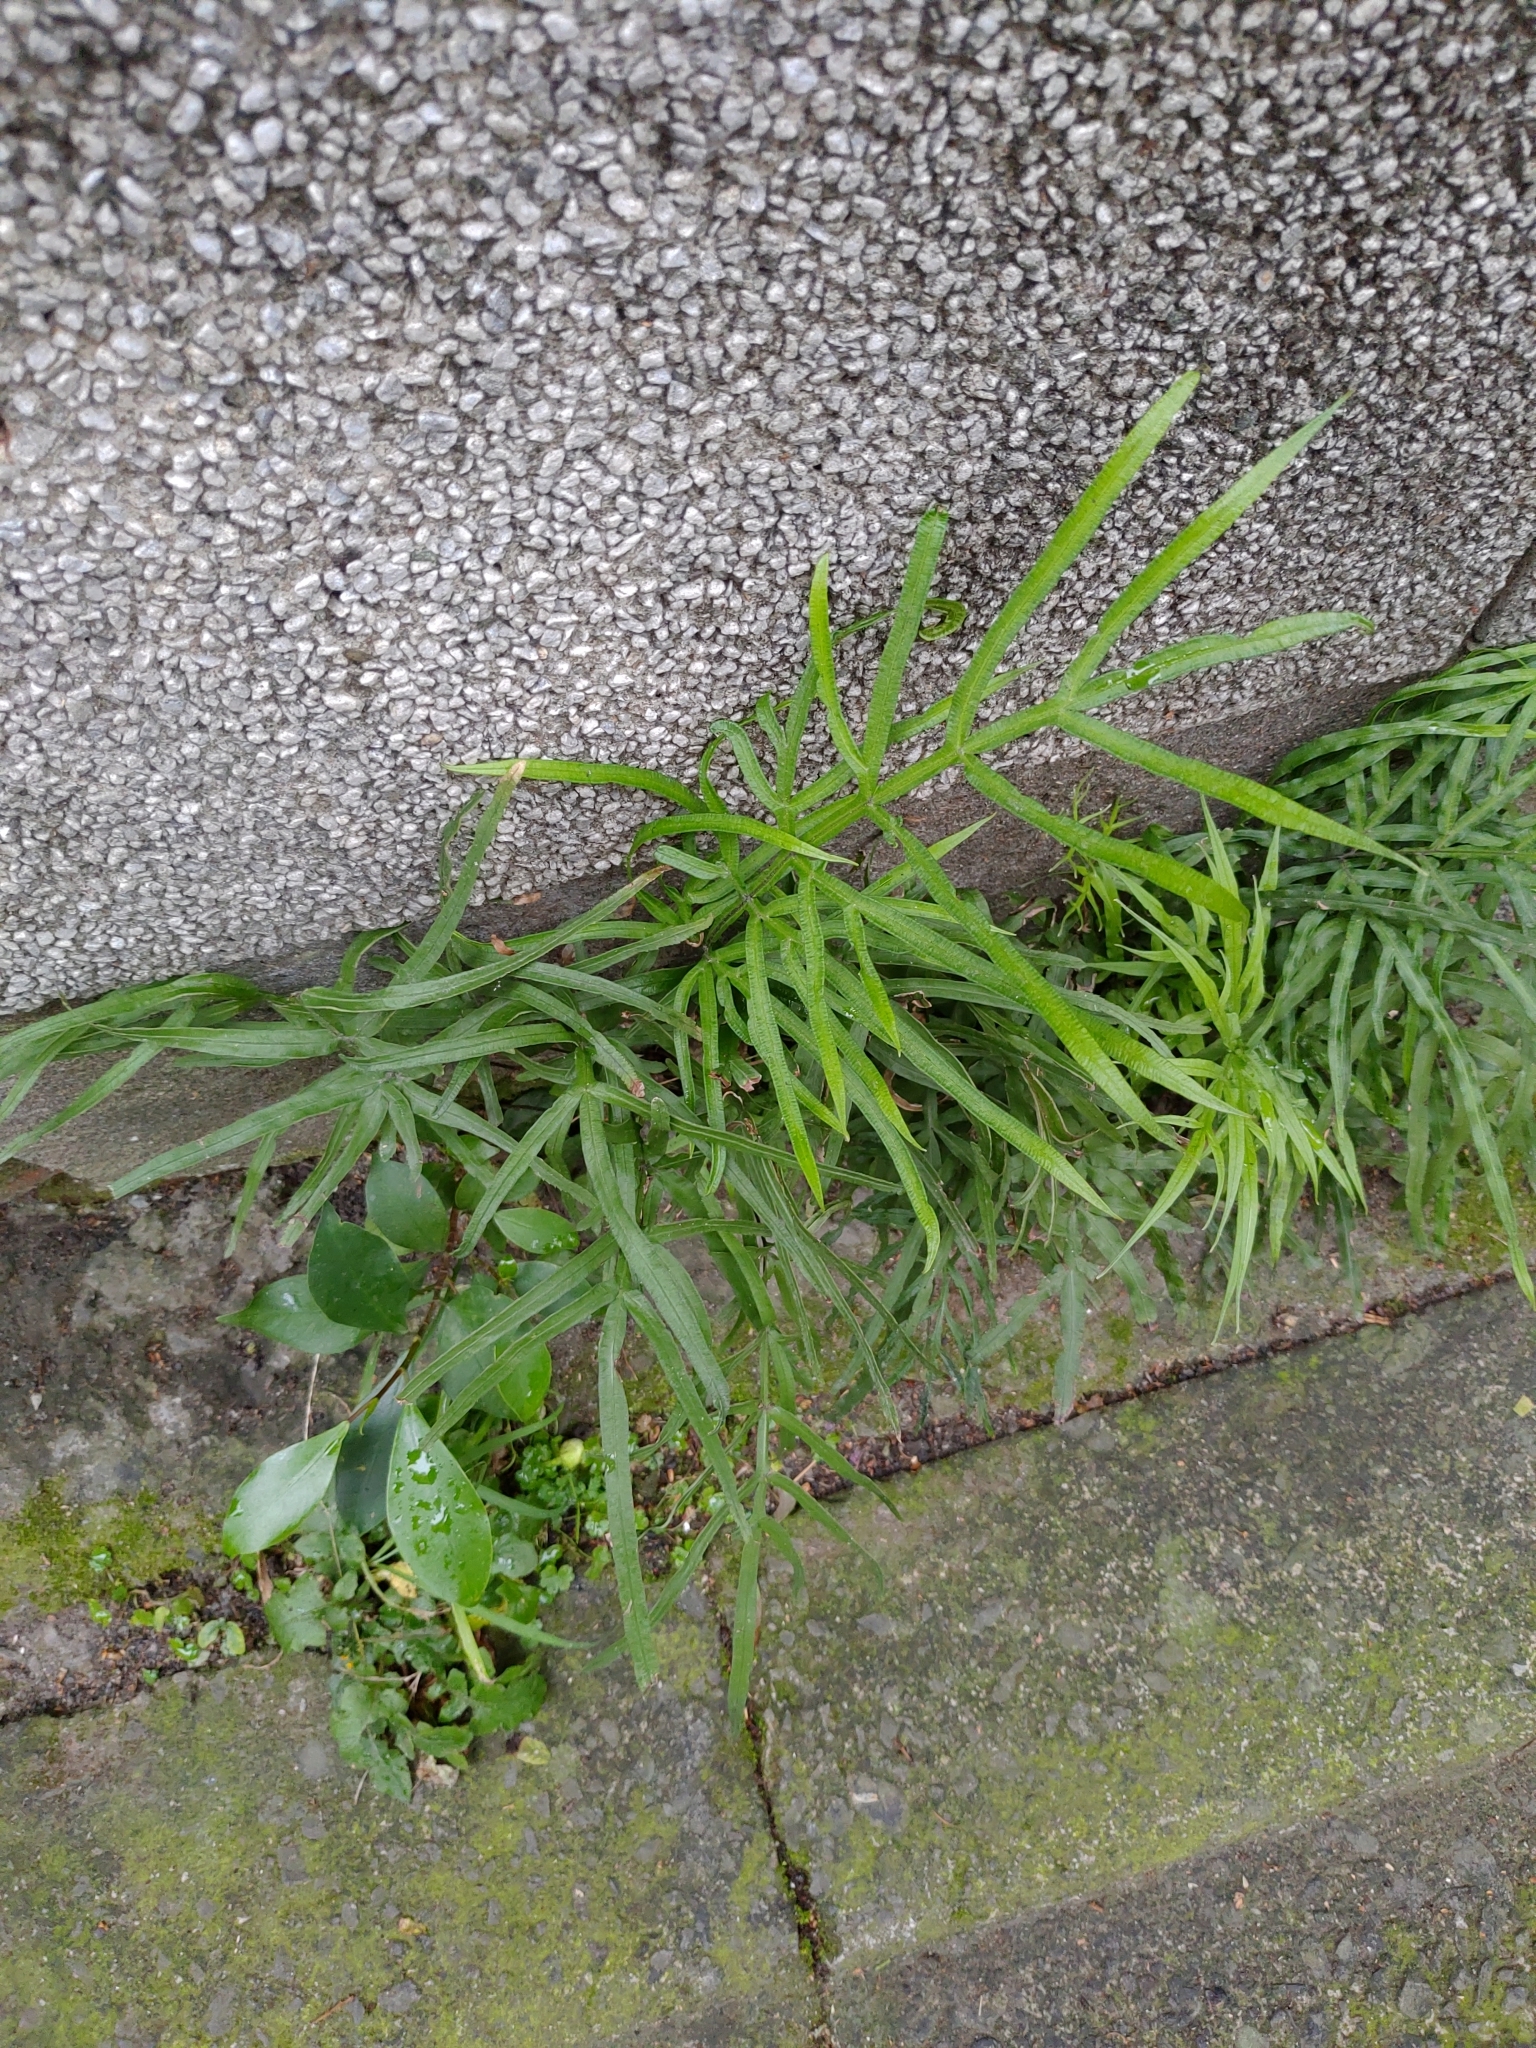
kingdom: Plantae
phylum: Tracheophyta
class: Polypodiopsida
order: Polypodiales
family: Pteridaceae
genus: Pteris
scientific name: Pteris multifida
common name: Spider brake
